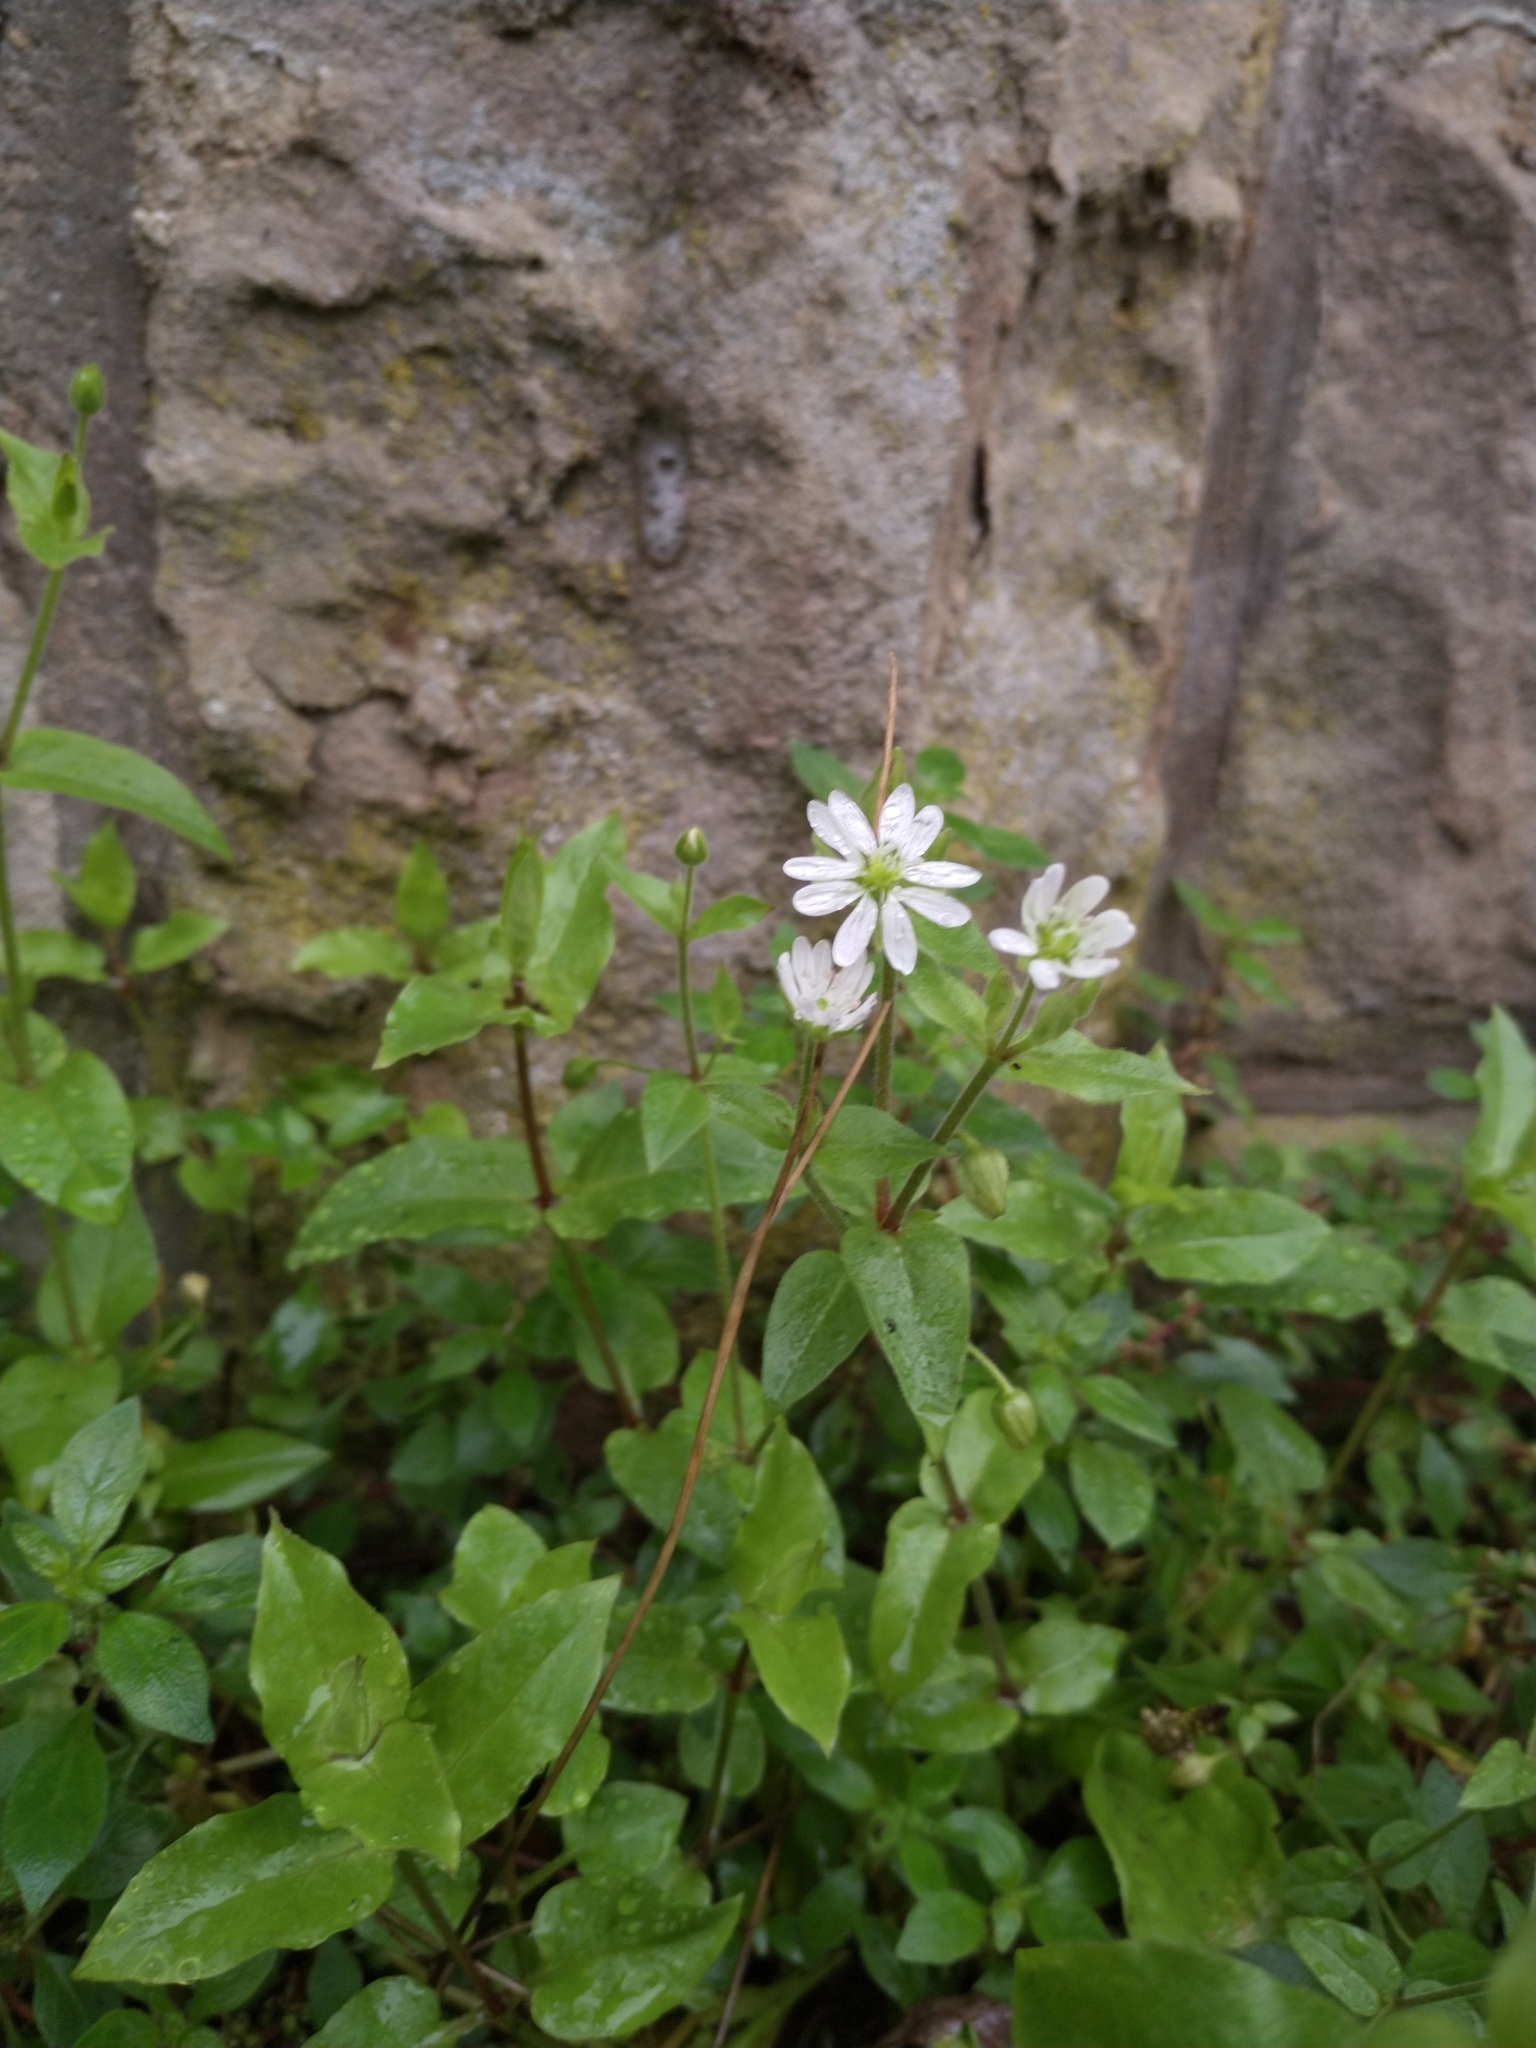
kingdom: Plantae
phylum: Tracheophyta
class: Magnoliopsida
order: Caryophyllales
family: Caryophyllaceae
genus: Stellaria
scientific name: Stellaria aquatica
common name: Water chickweed
